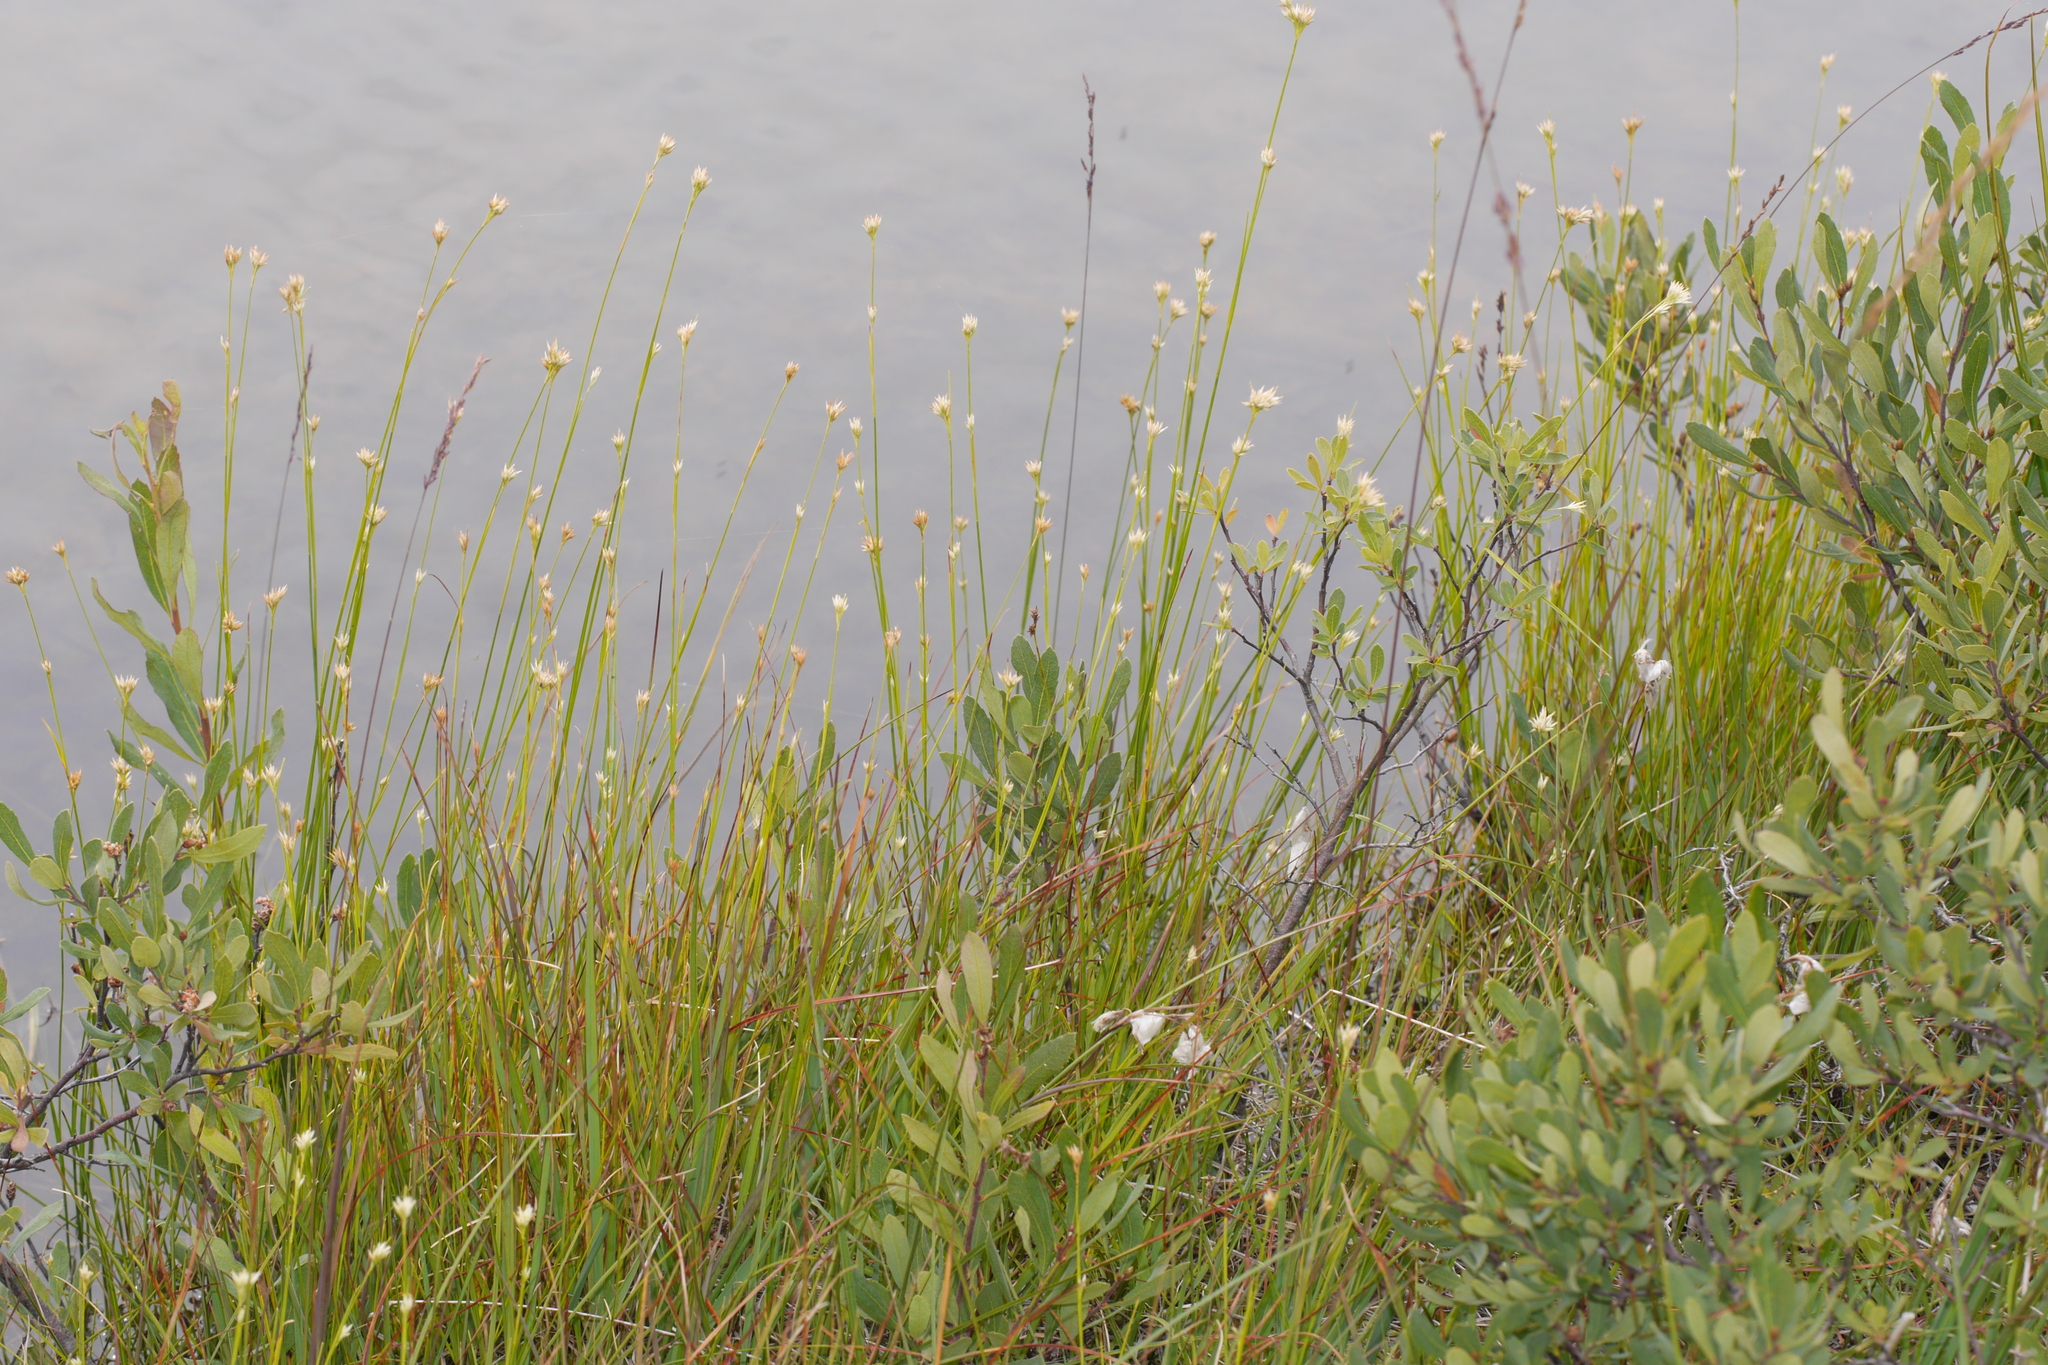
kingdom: Plantae
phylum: Tracheophyta
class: Liliopsida
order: Poales
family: Cyperaceae
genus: Rhynchospora
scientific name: Rhynchospora alba
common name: White beak-sedge
